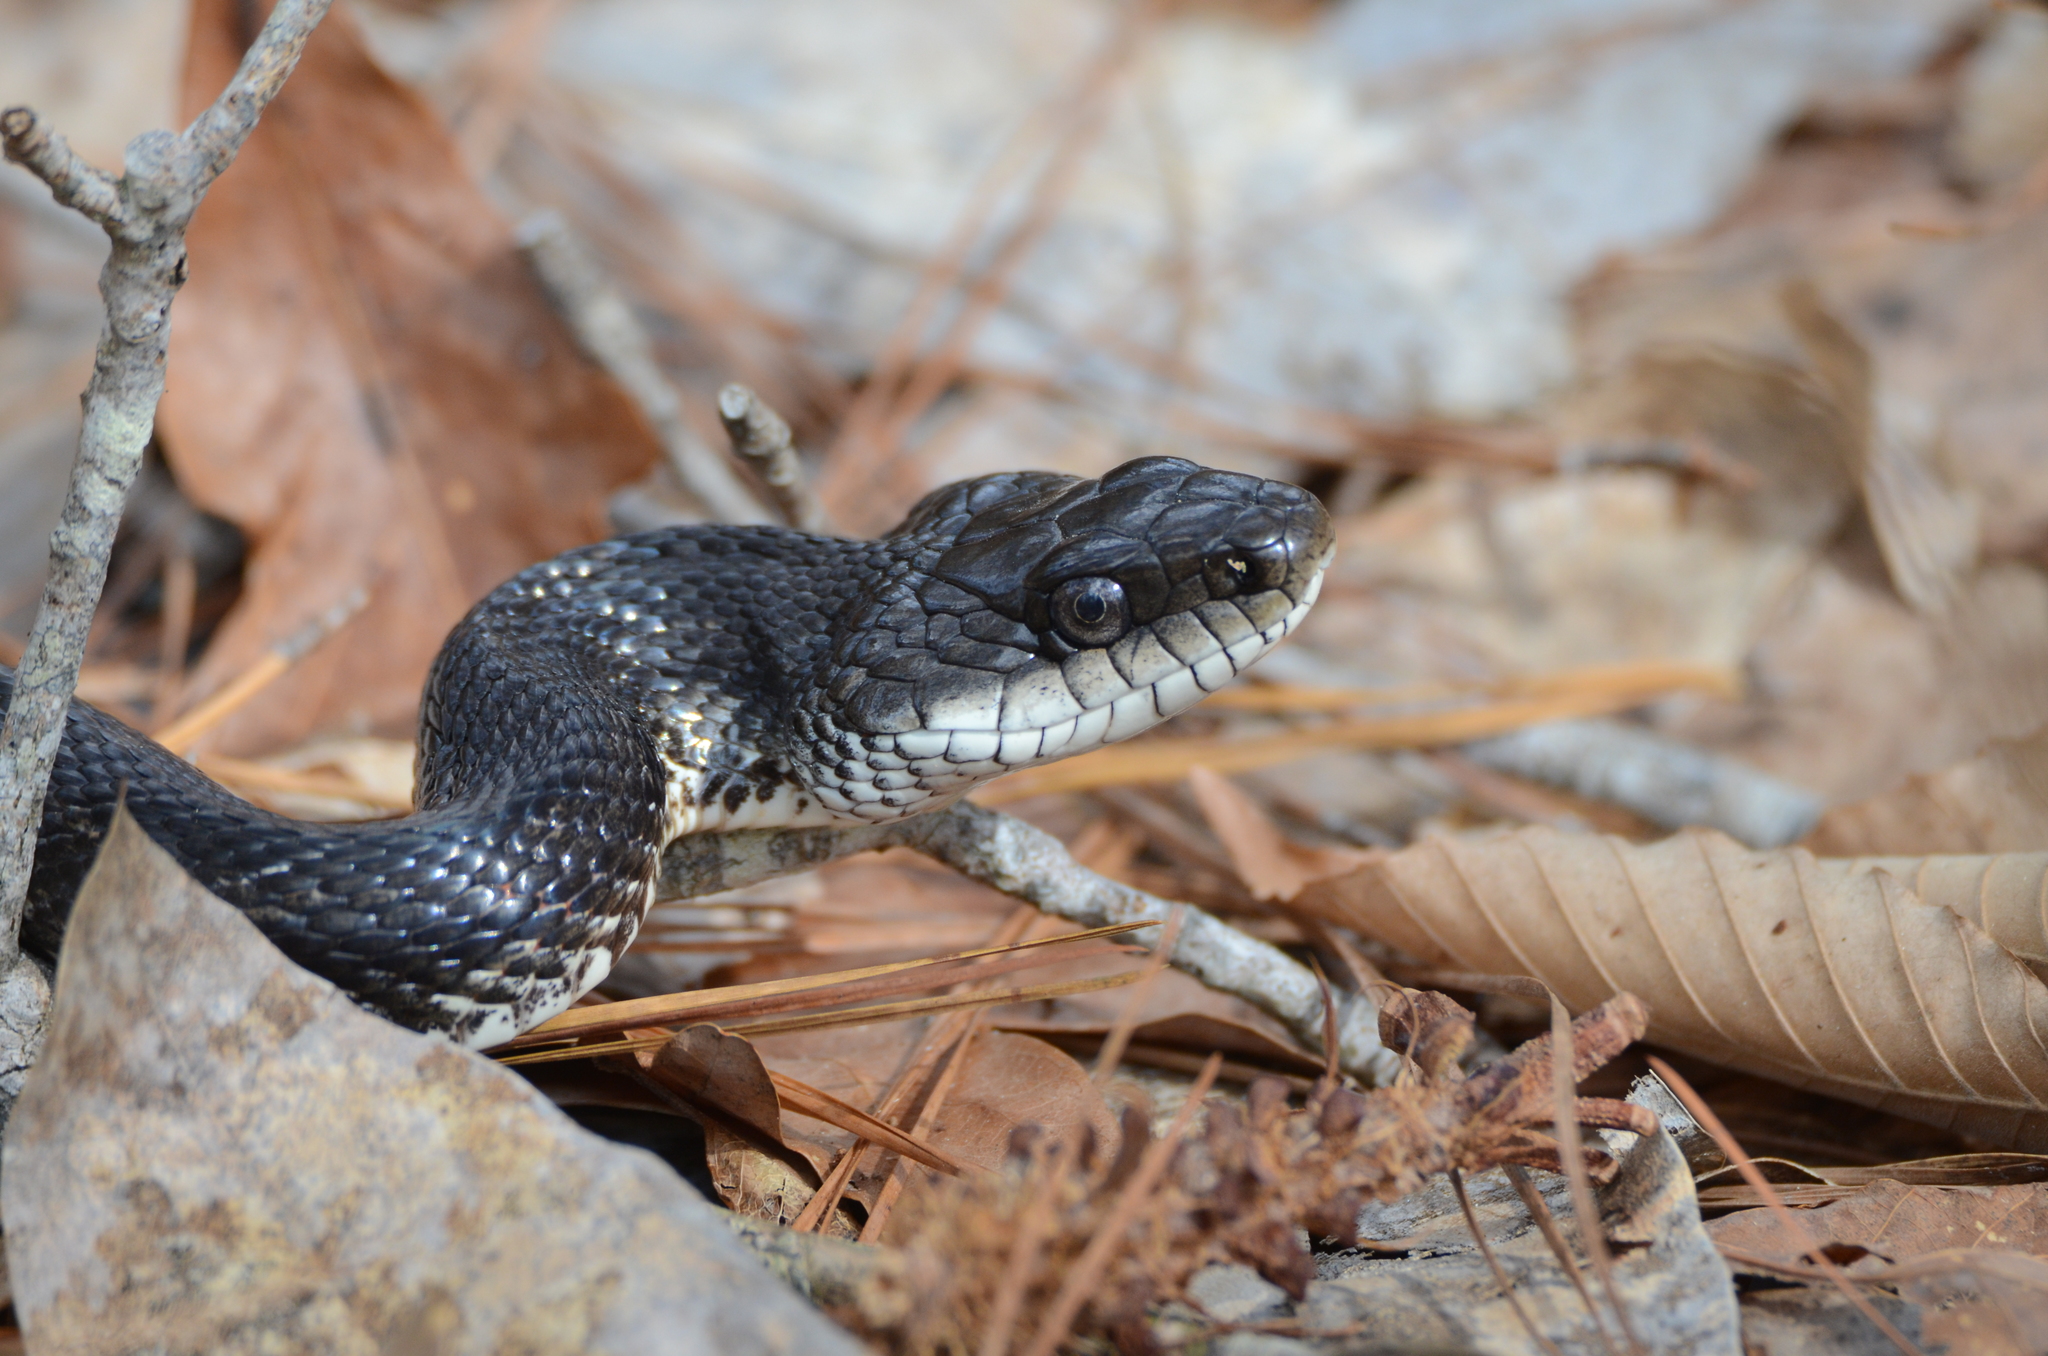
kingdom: Animalia
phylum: Chordata
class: Squamata
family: Colubridae
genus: Pantherophis
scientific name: Pantherophis obsoletus
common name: Black rat snake
